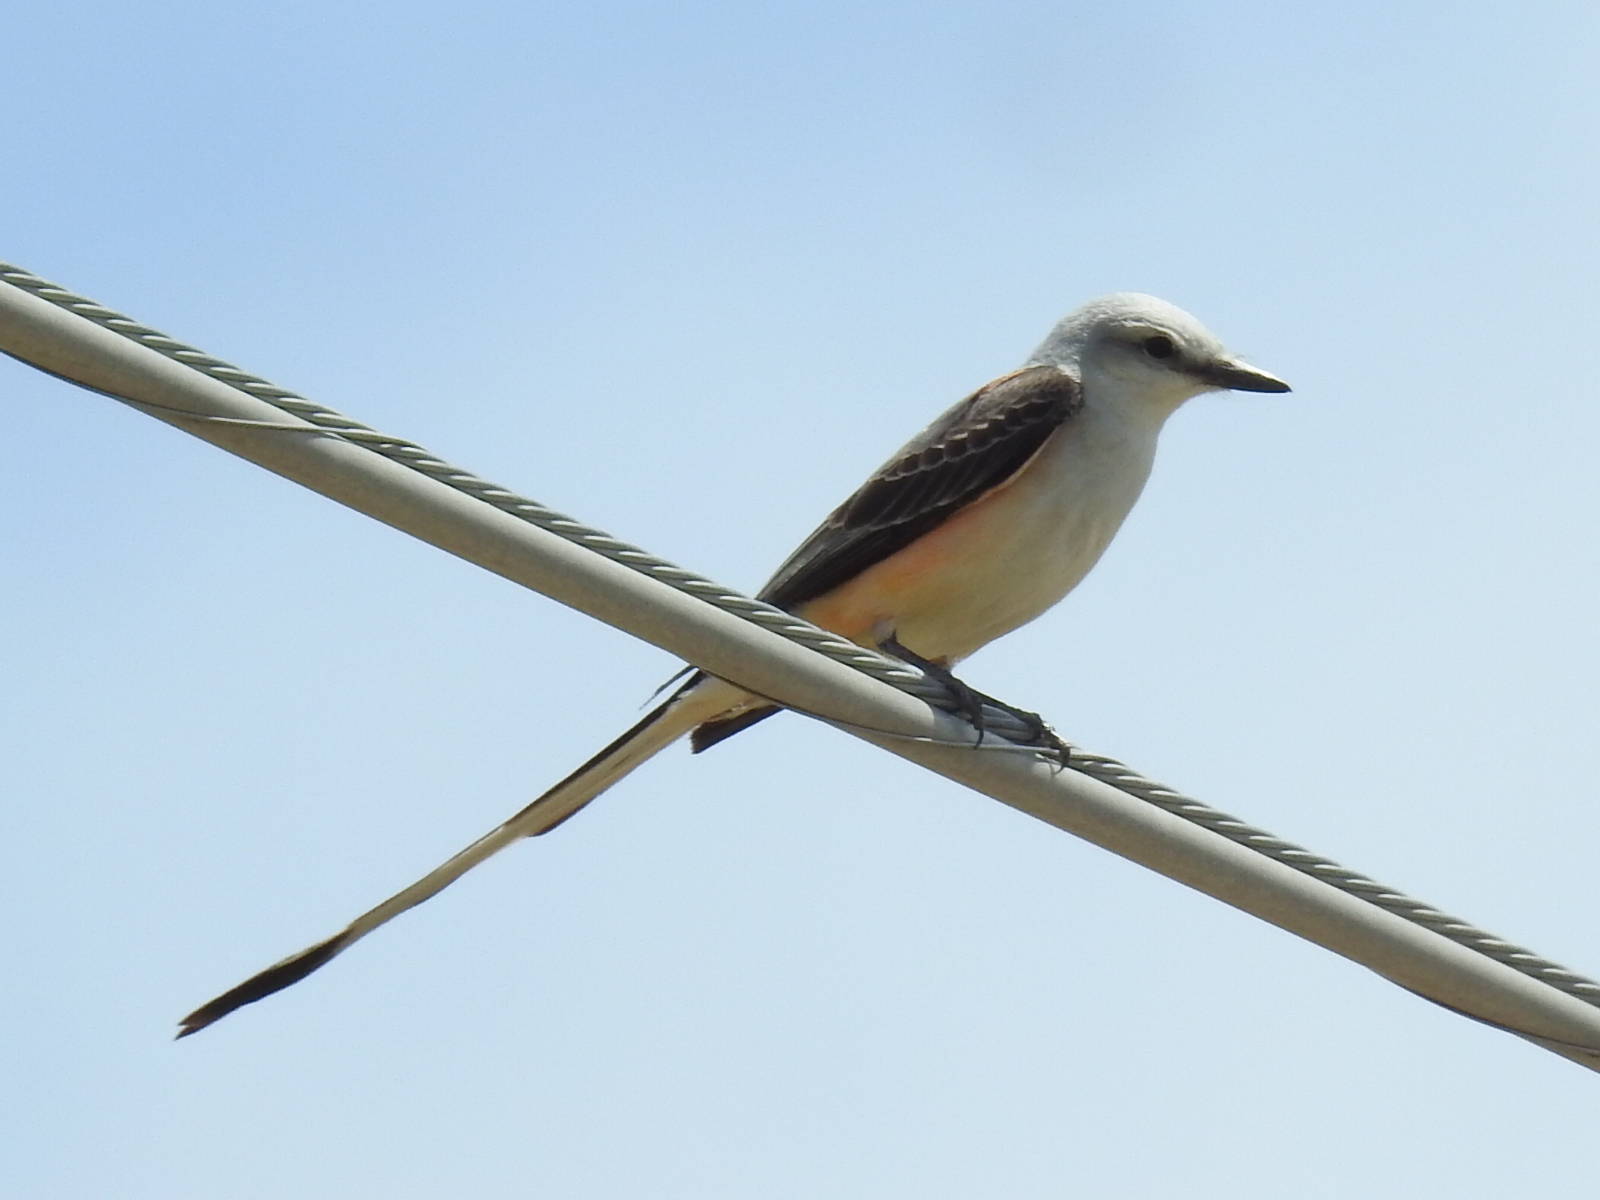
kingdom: Animalia
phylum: Chordata
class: Aves
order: Passeriformes
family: Tyrannidae
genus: Tyrannus
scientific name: Tyrannus forficatus
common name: Scissor-tailed flycatcher
